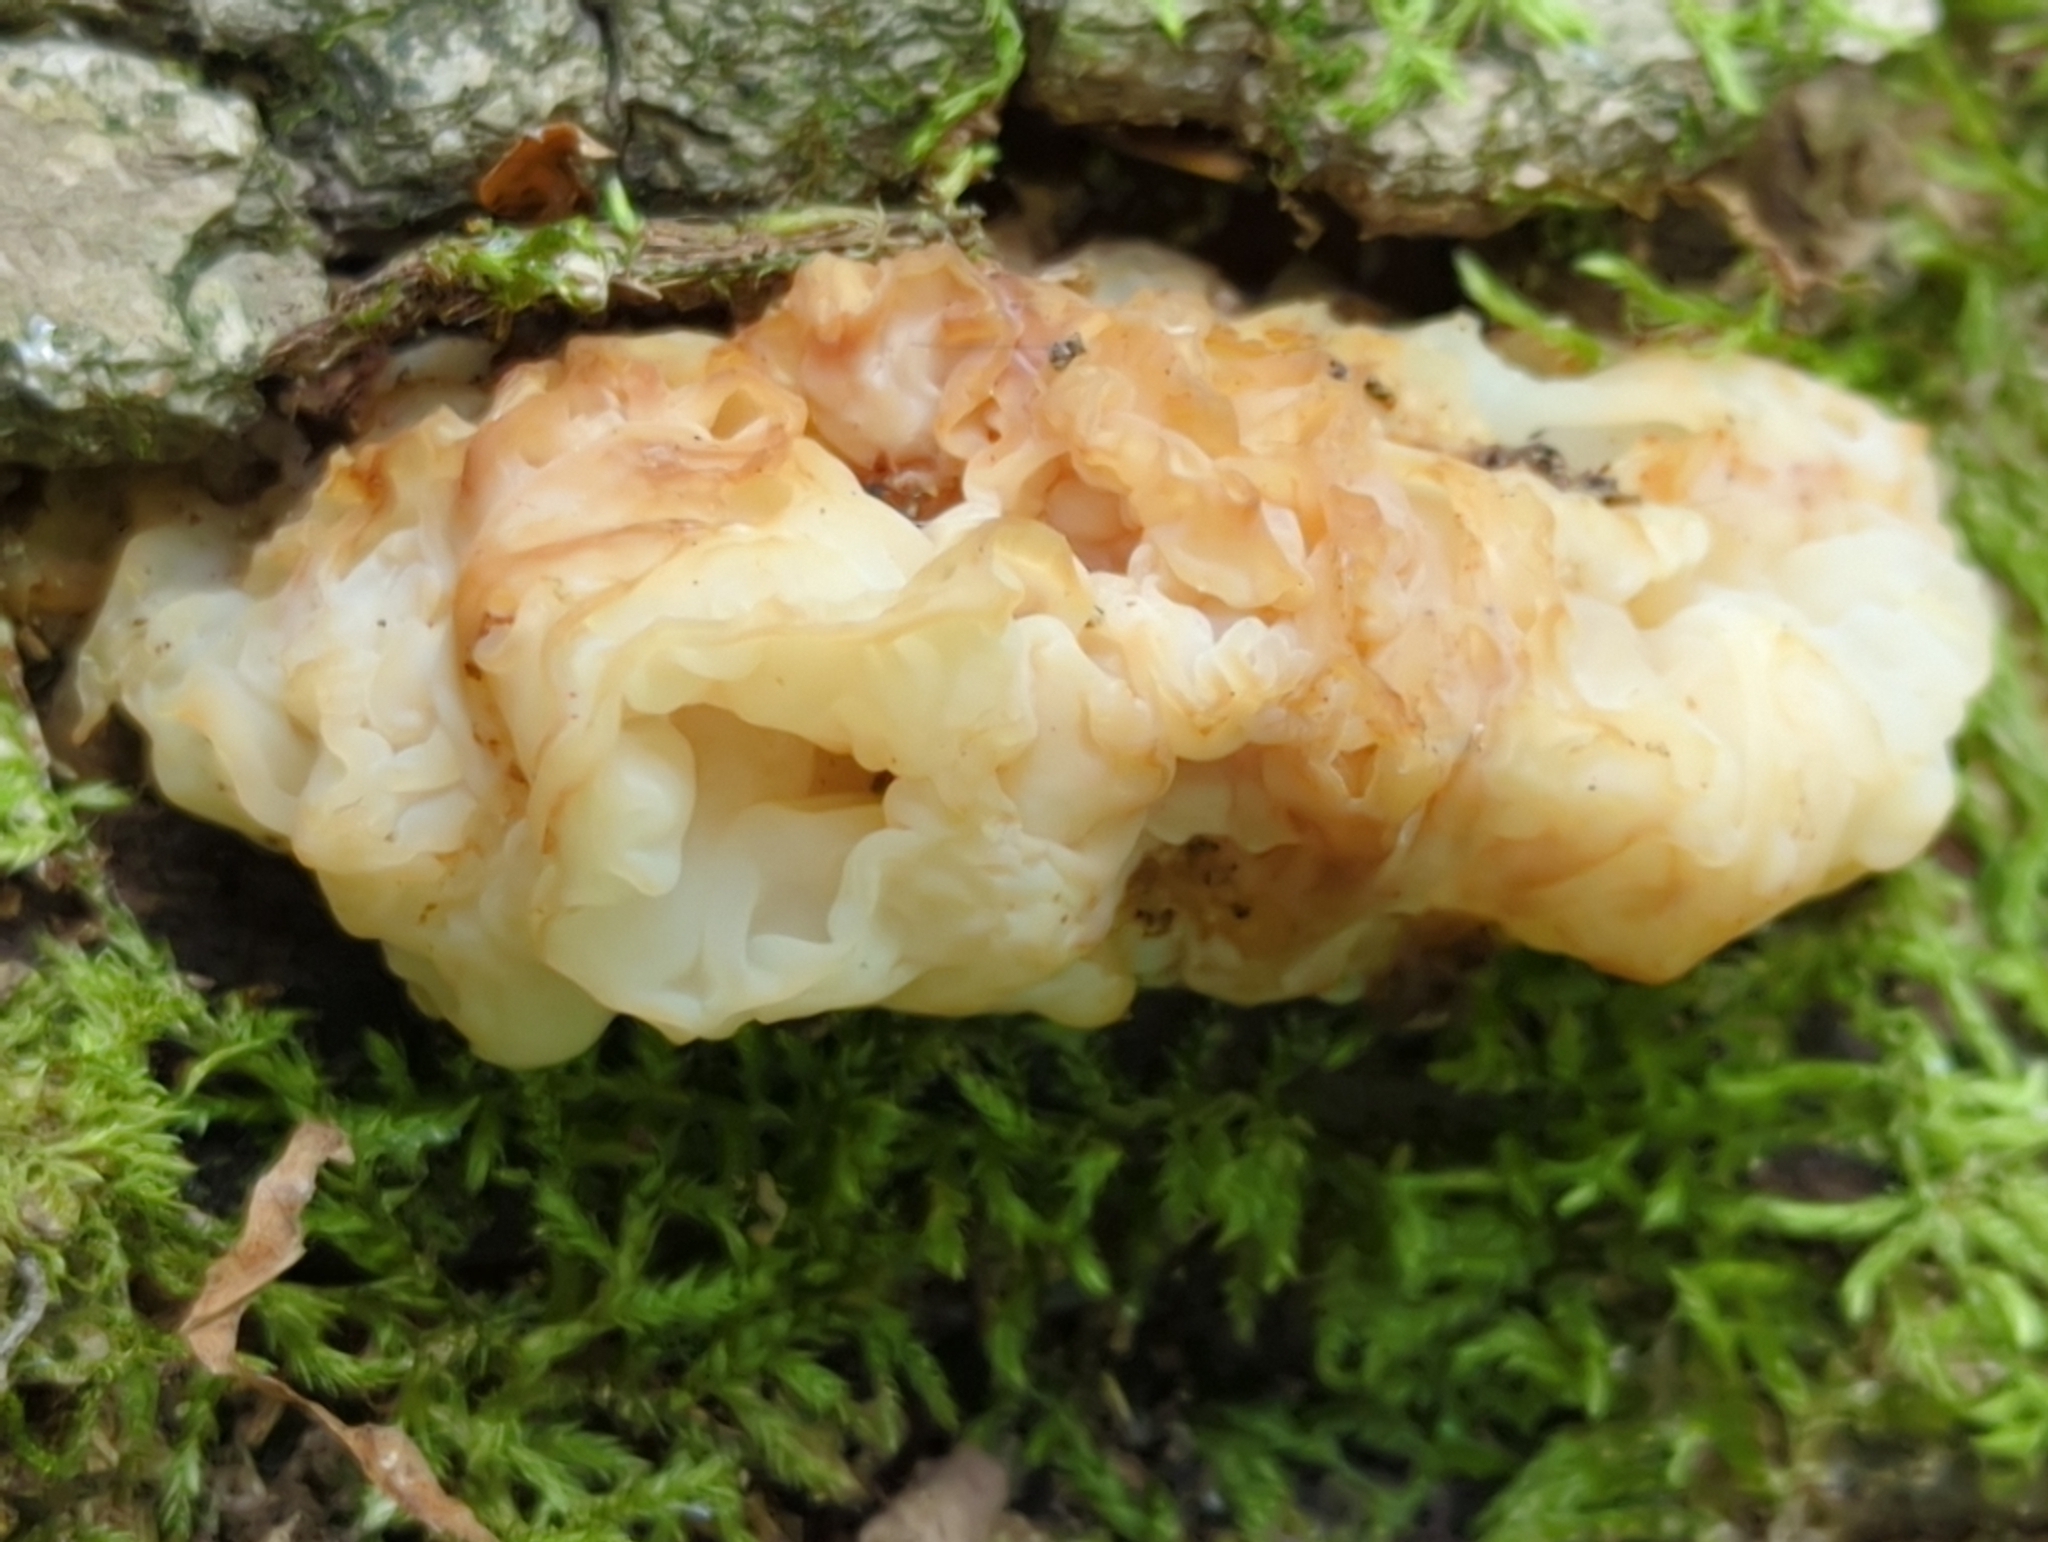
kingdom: Fungi
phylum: Basidiomycota
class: Agaricomycetes
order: Auriculariales
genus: Ductifera
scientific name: Ductifera pululahuana
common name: White jelly fungus
